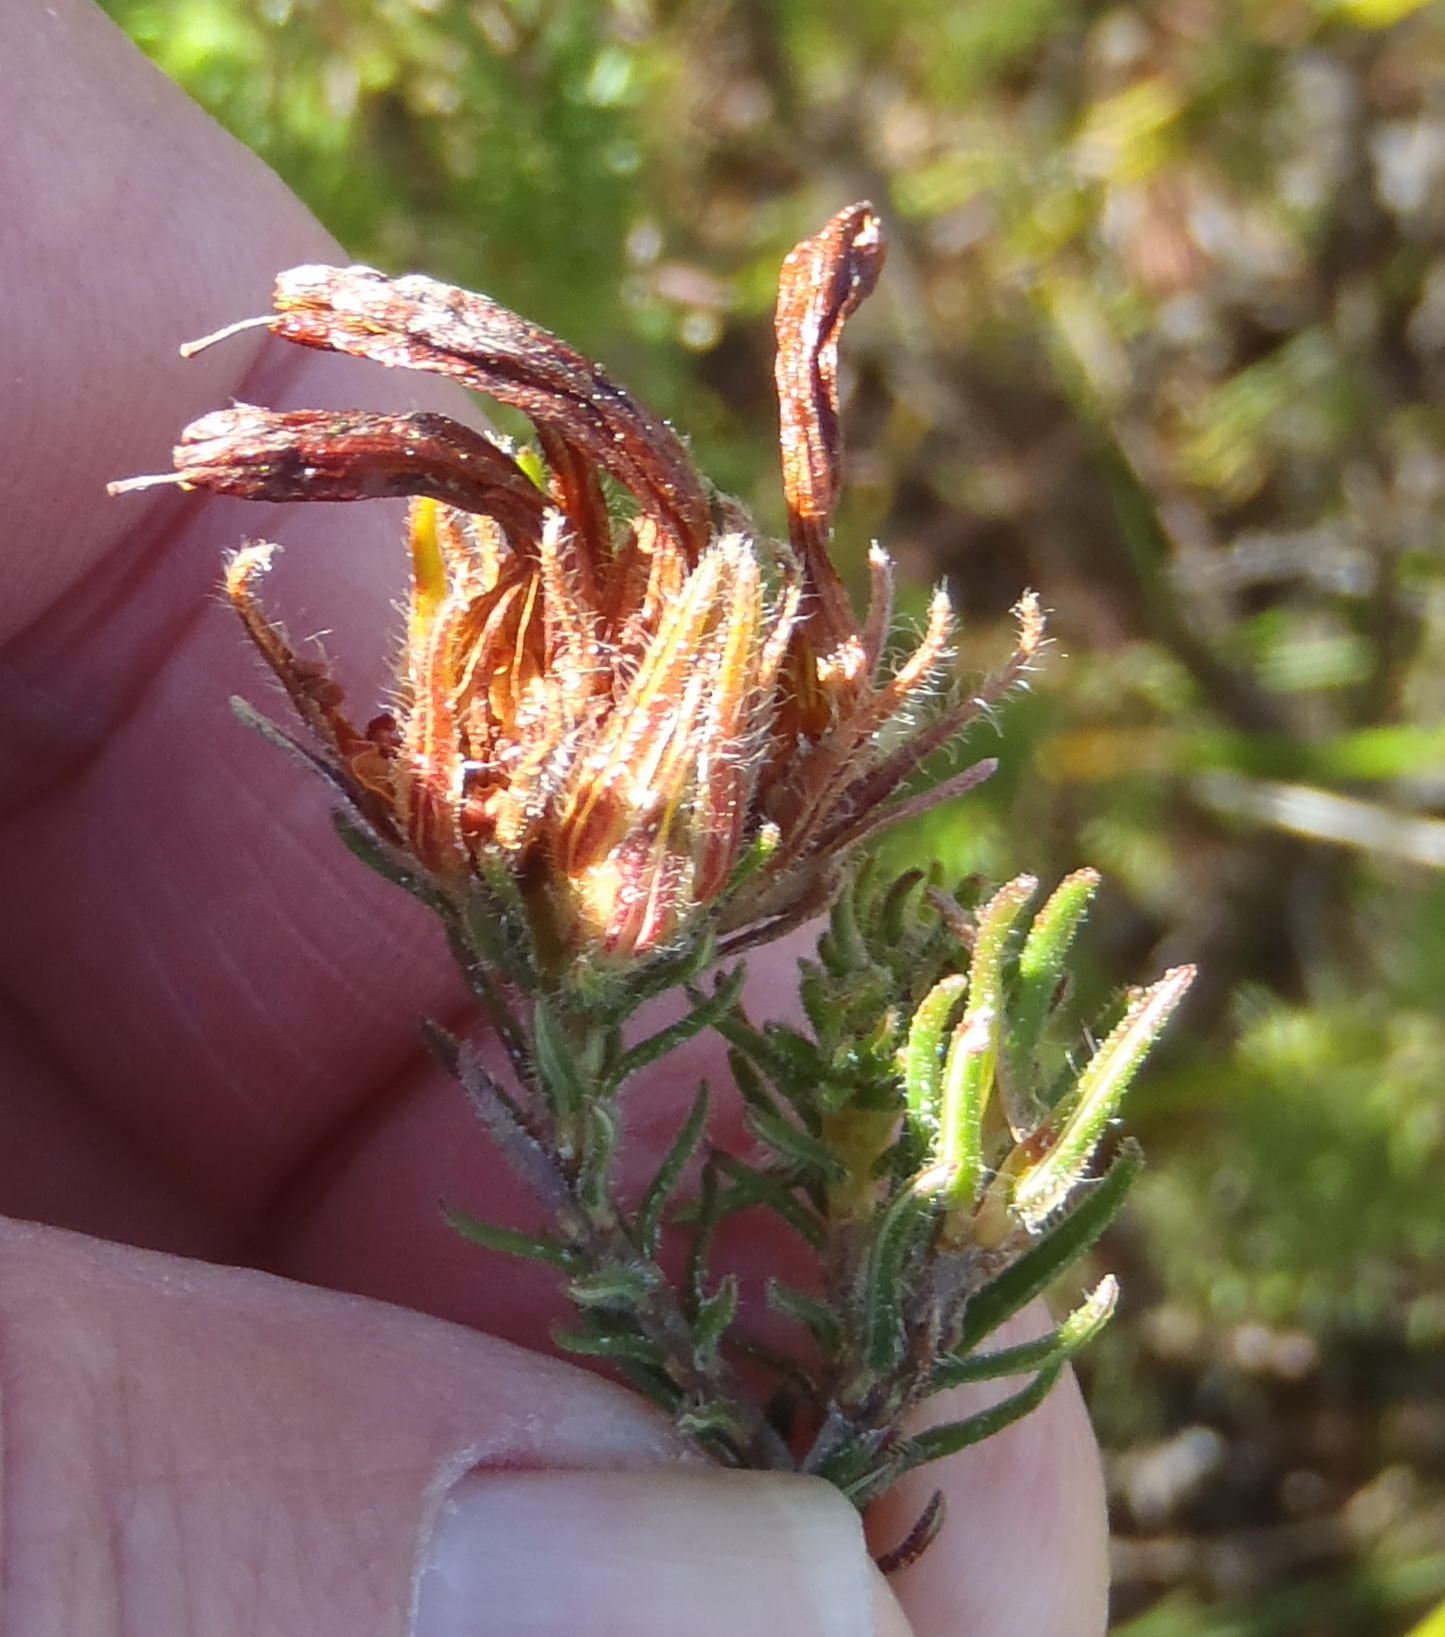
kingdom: Plantae
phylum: Tracheophyta
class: Magnoliopsida
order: Ericales
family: Ericaceae
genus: Erica
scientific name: Erica unicolor
